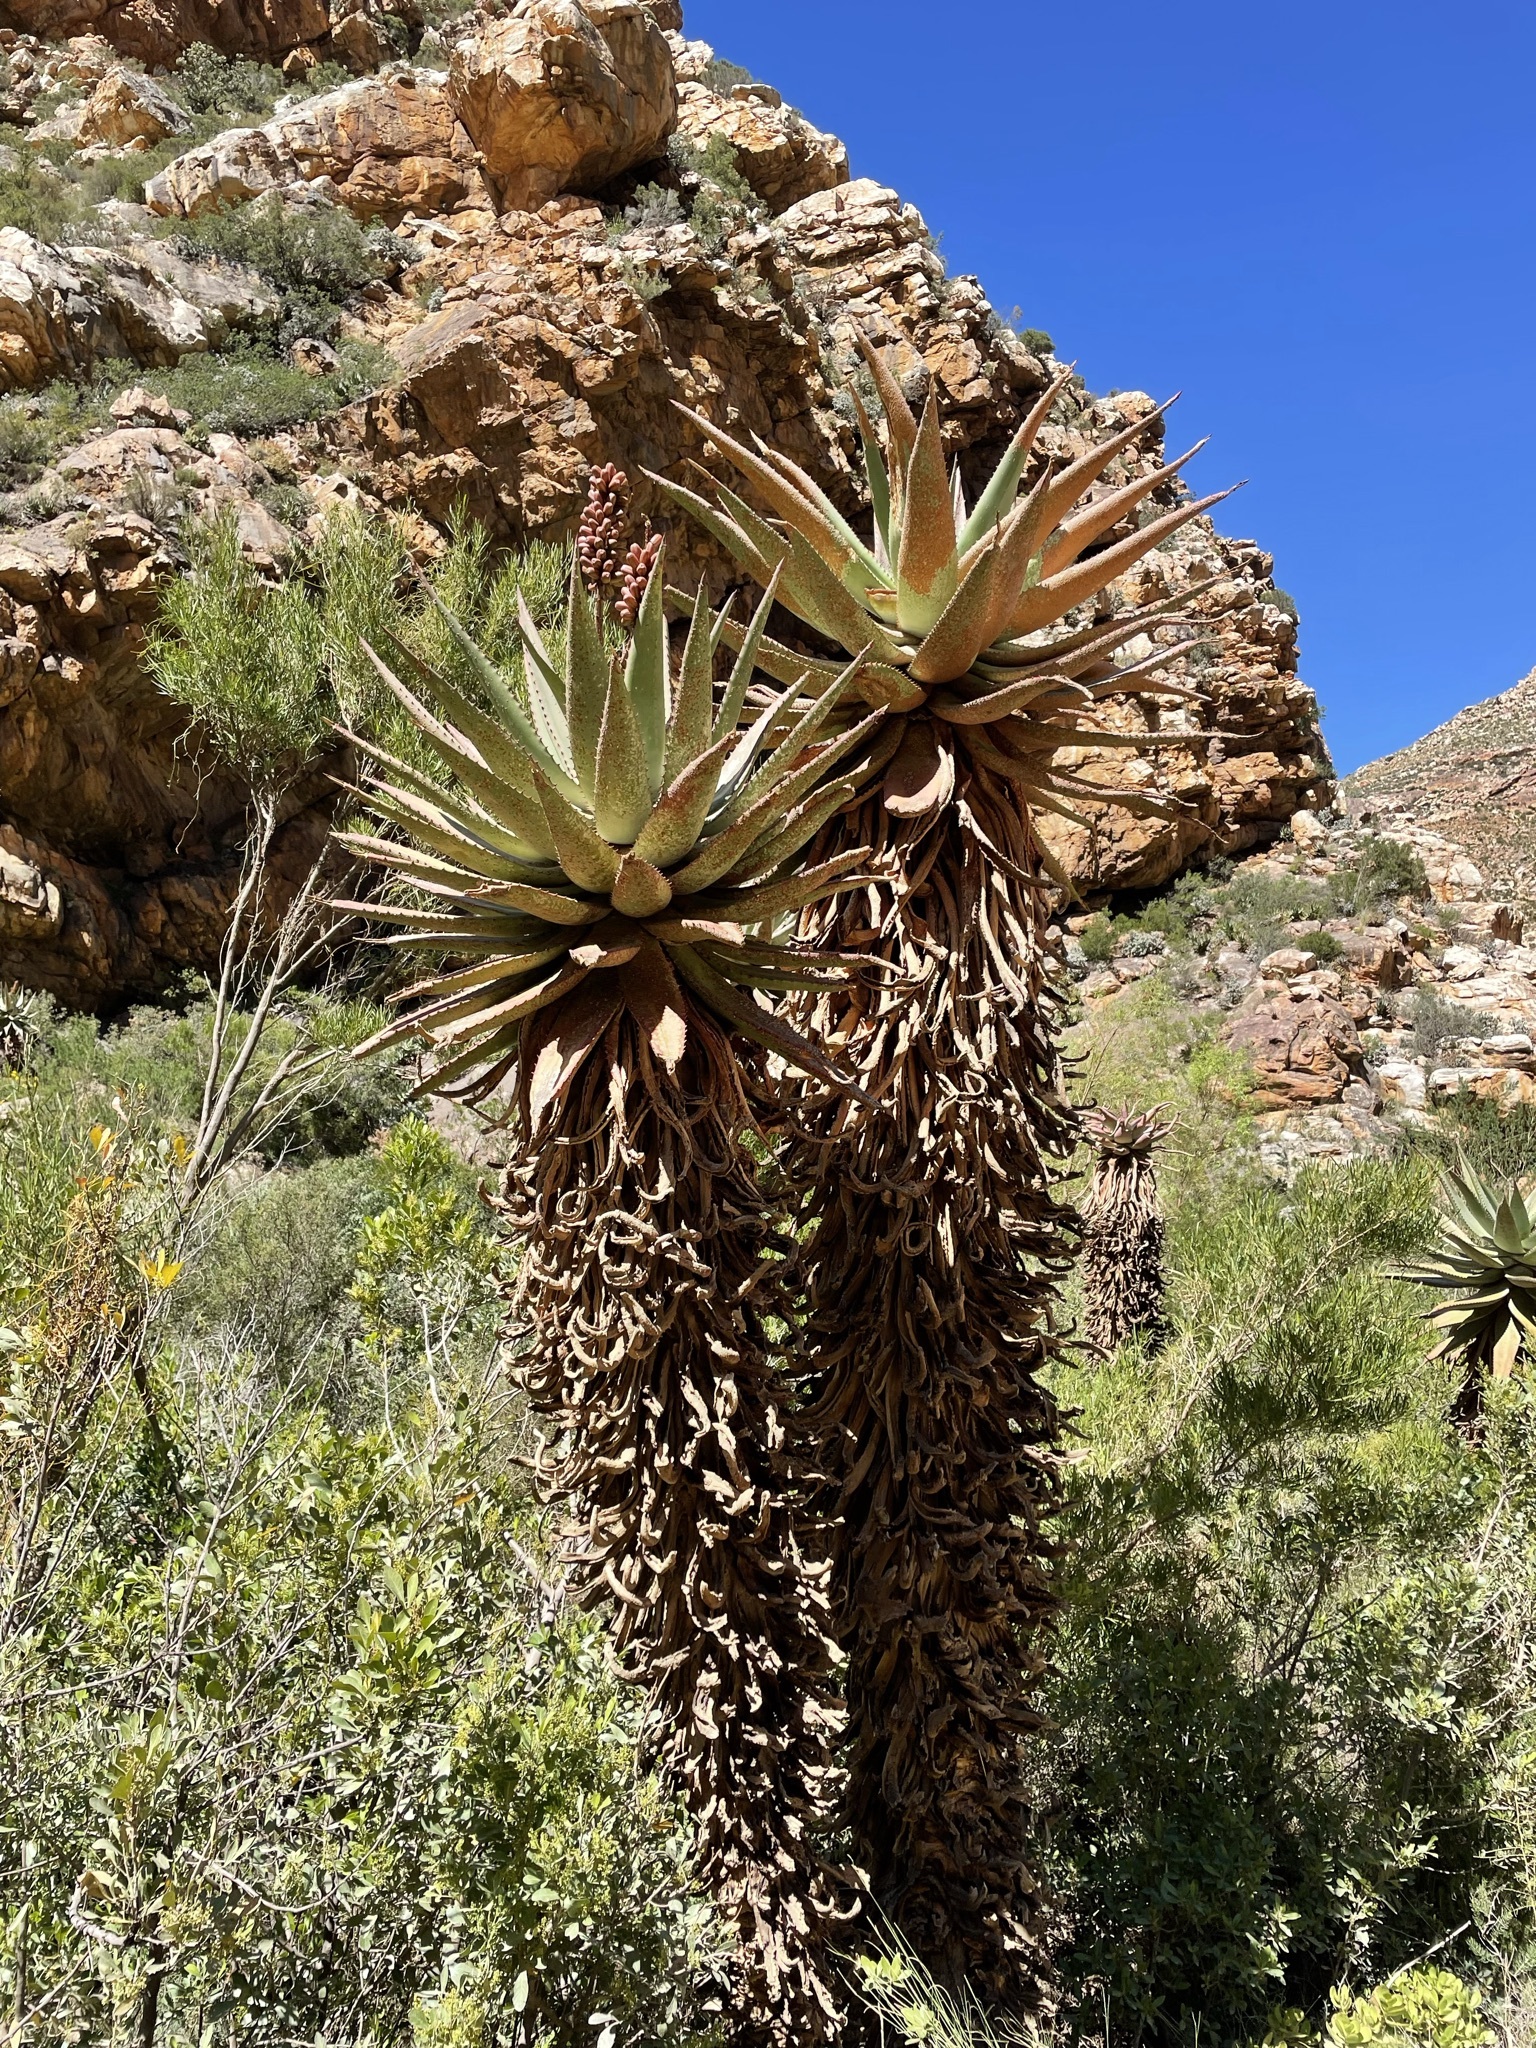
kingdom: Plantae
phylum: Tracheophyta
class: Liliopsida
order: Asparagales
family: Asphodelaceae
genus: Aloe
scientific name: Aloe ferox
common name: Bitter aloe
